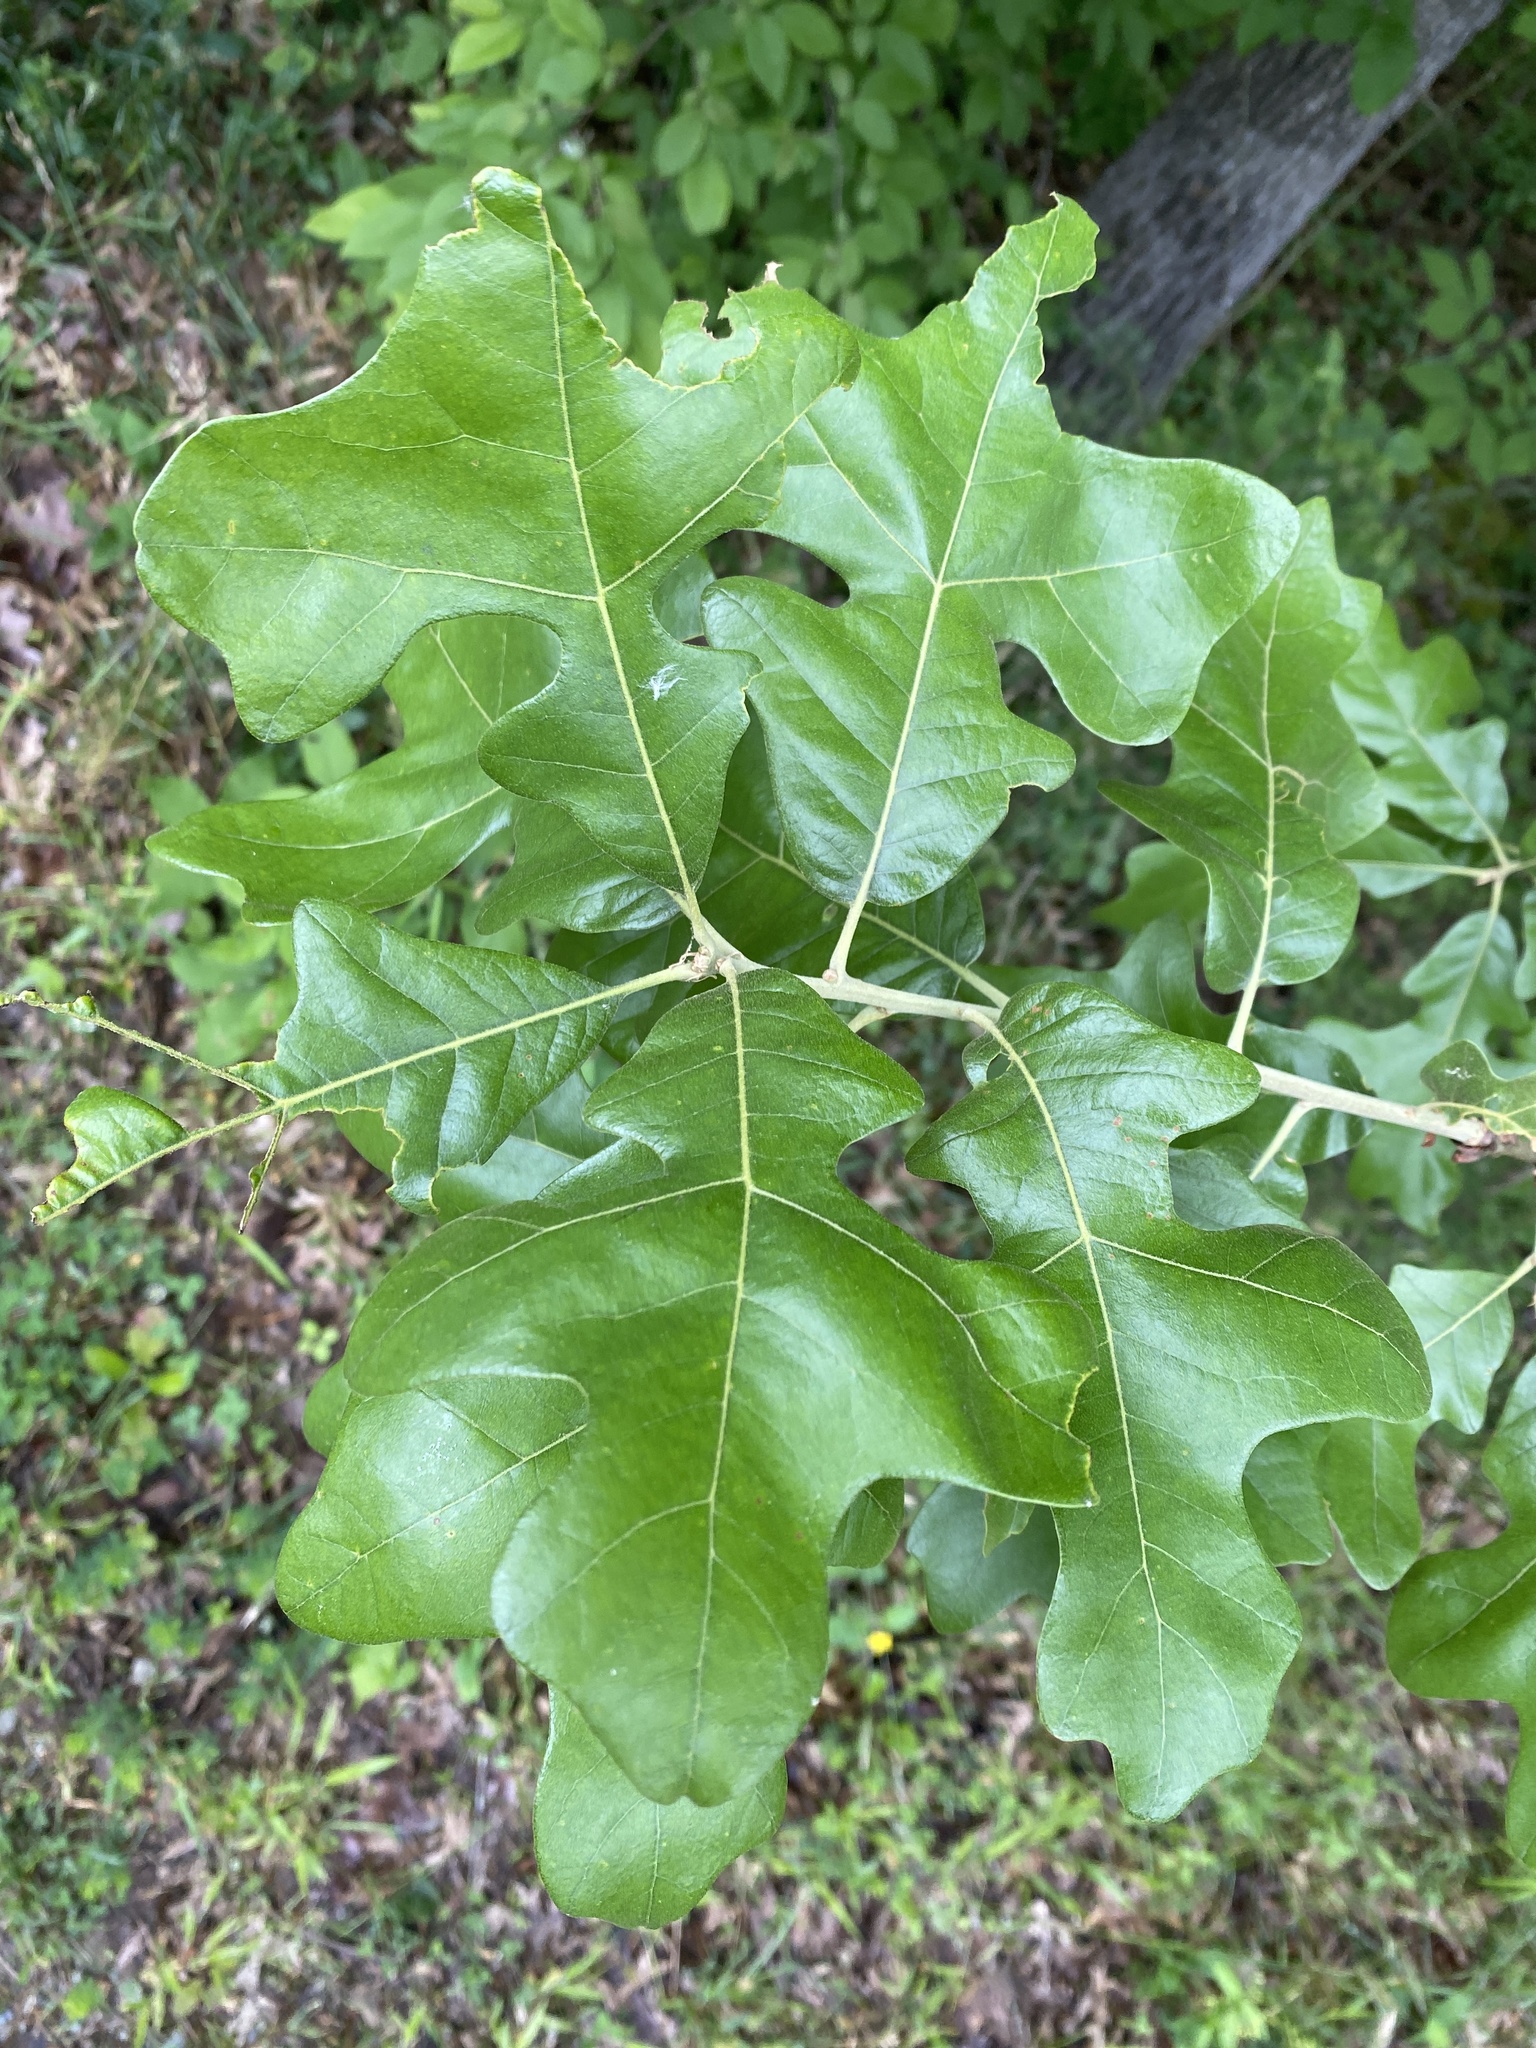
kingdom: Plantae
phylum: Tracheophyta
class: Magnoliopsida
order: Fagales
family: Fagaceae
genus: Quercus
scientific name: Quercus stellata
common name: Post oak
